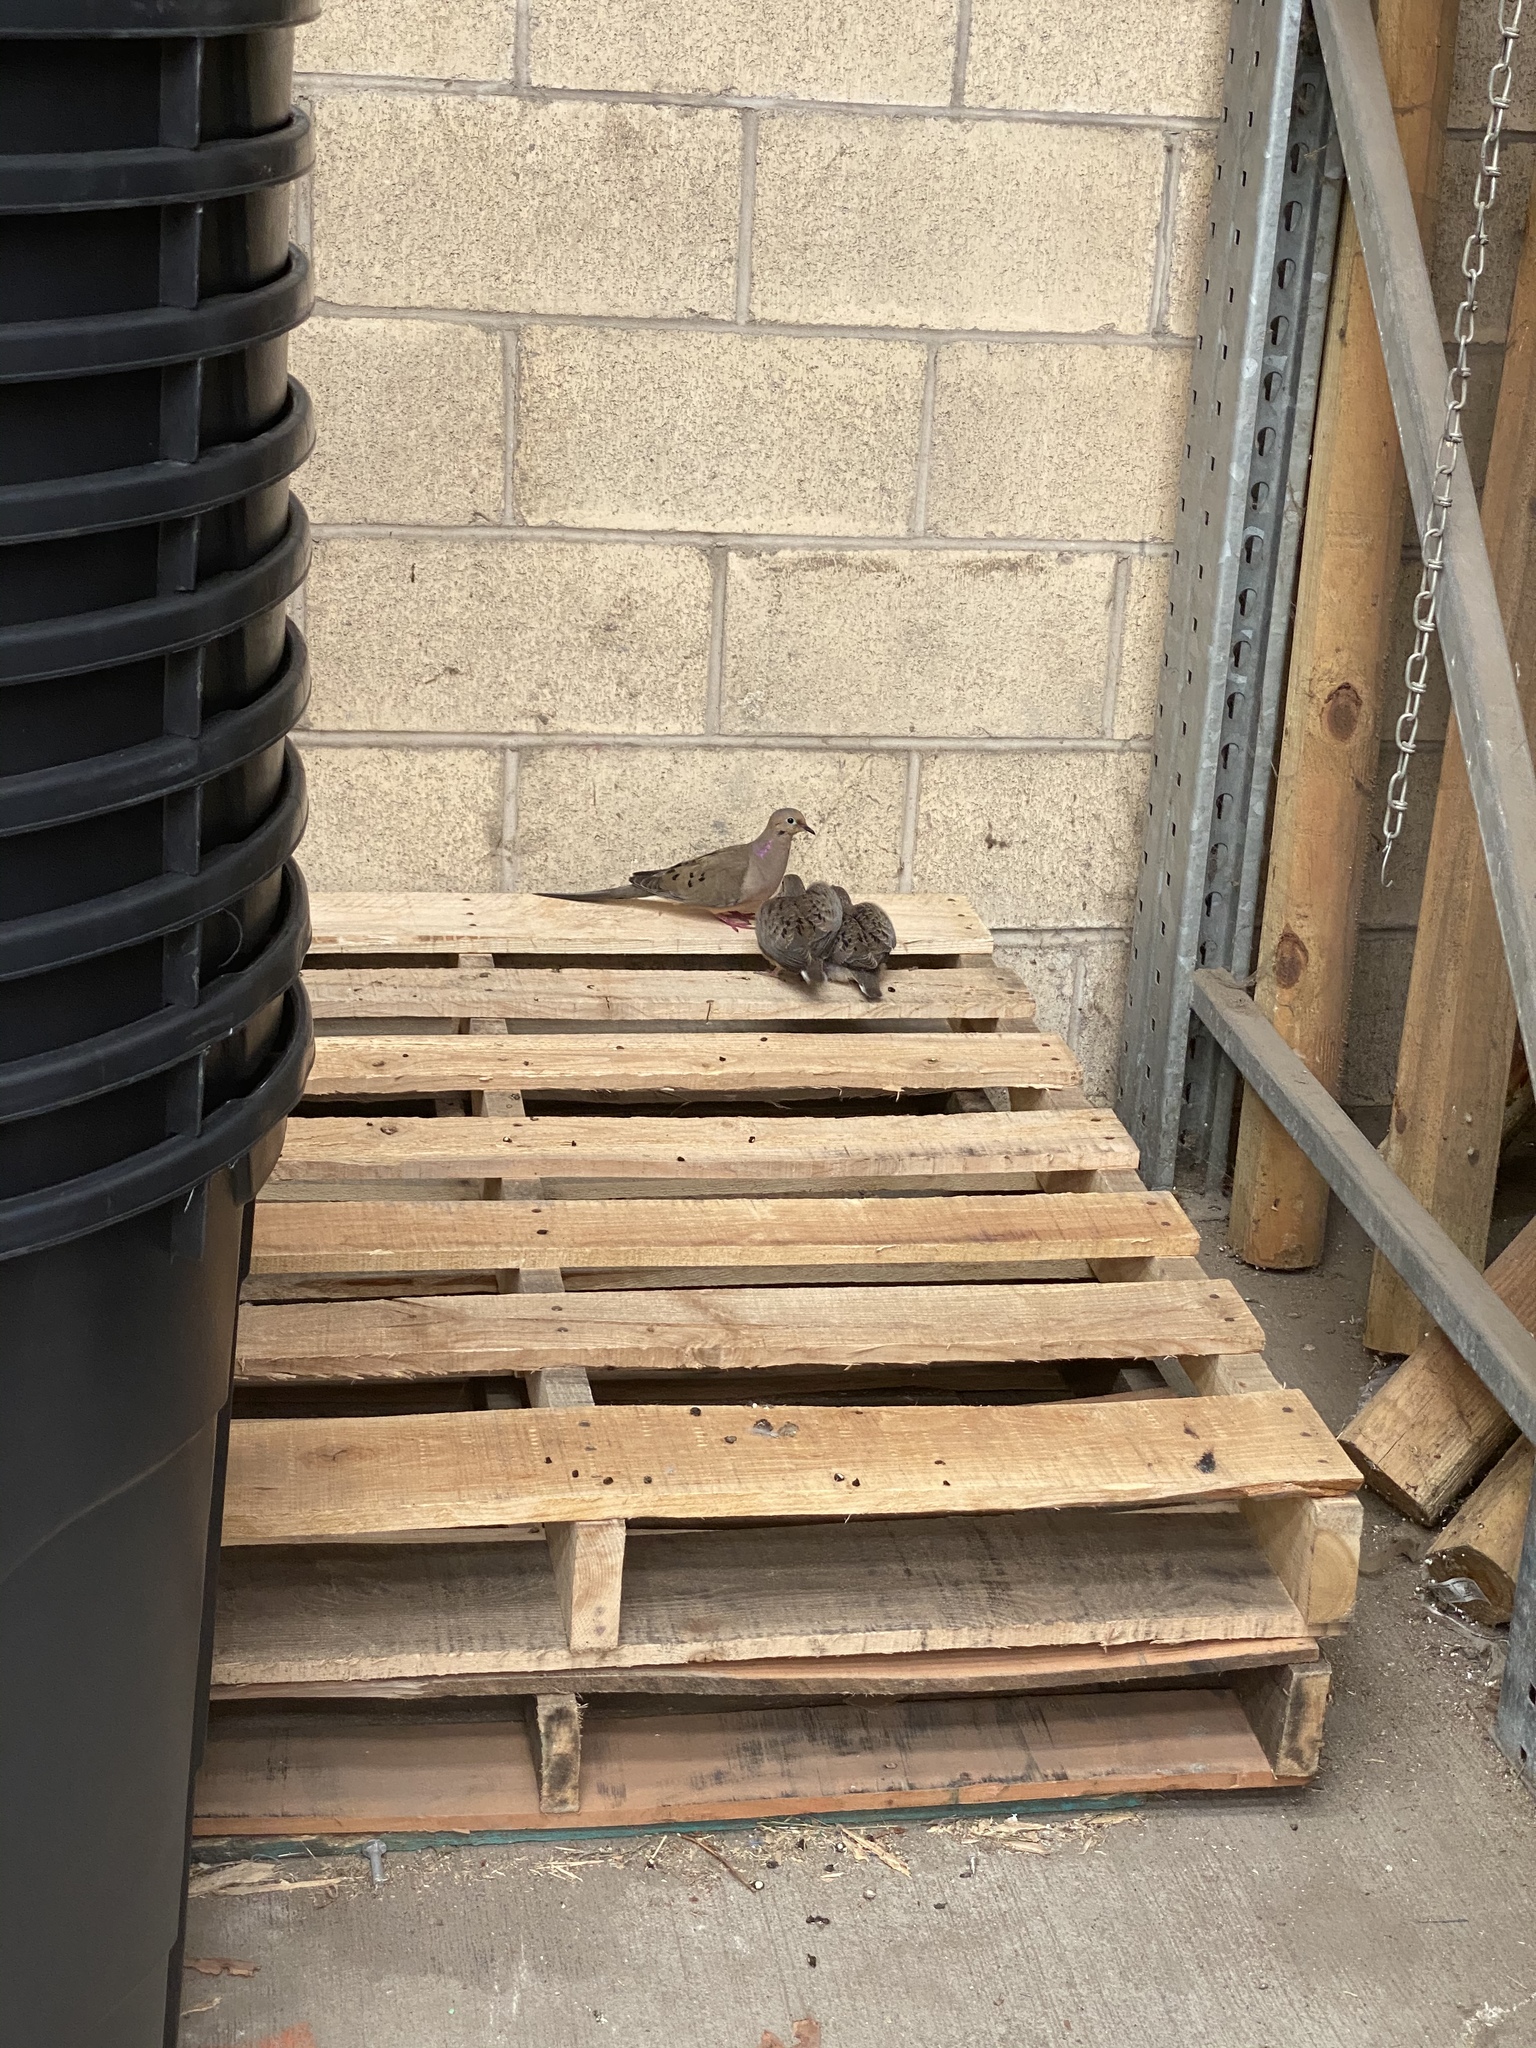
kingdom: Animalia
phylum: Chordata
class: Aves
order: Columbiformes
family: Columbidae
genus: Zenaida
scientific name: Zenaida macroura
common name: Mourning dove
